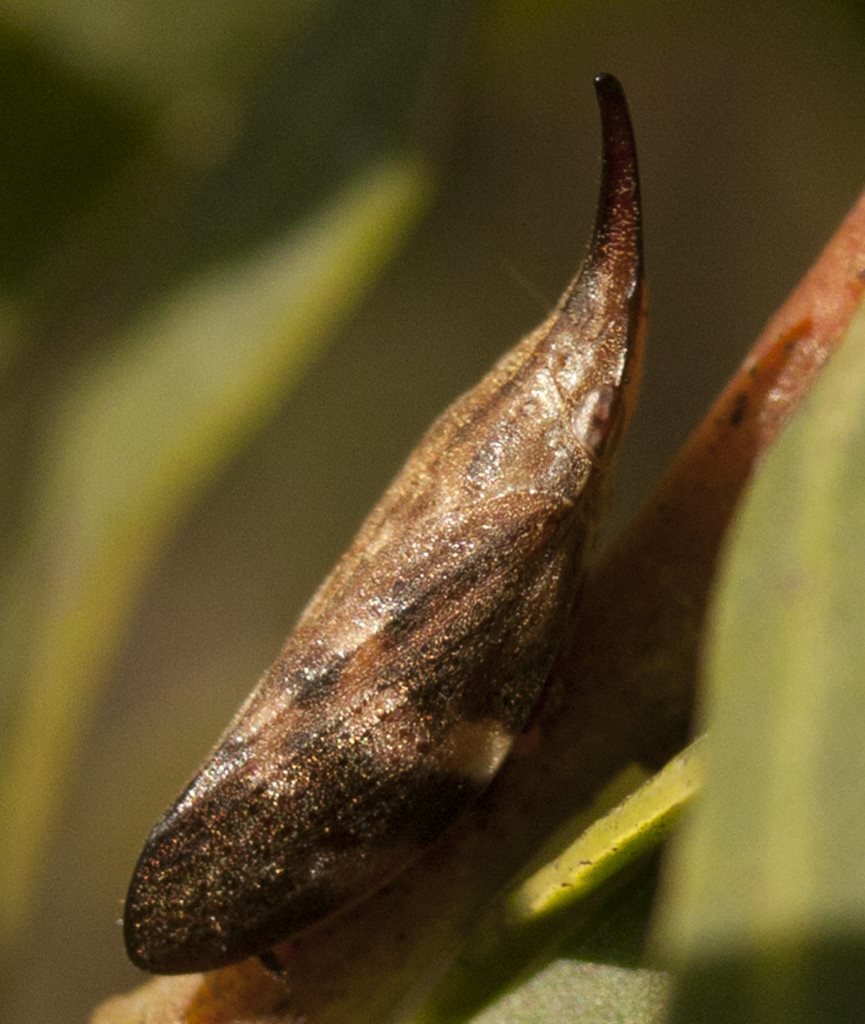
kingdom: Animalia
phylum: Arthropoda
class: Insecta
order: Hemiptera
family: Aphrophoridae
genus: Philagra
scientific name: Philagra parva
